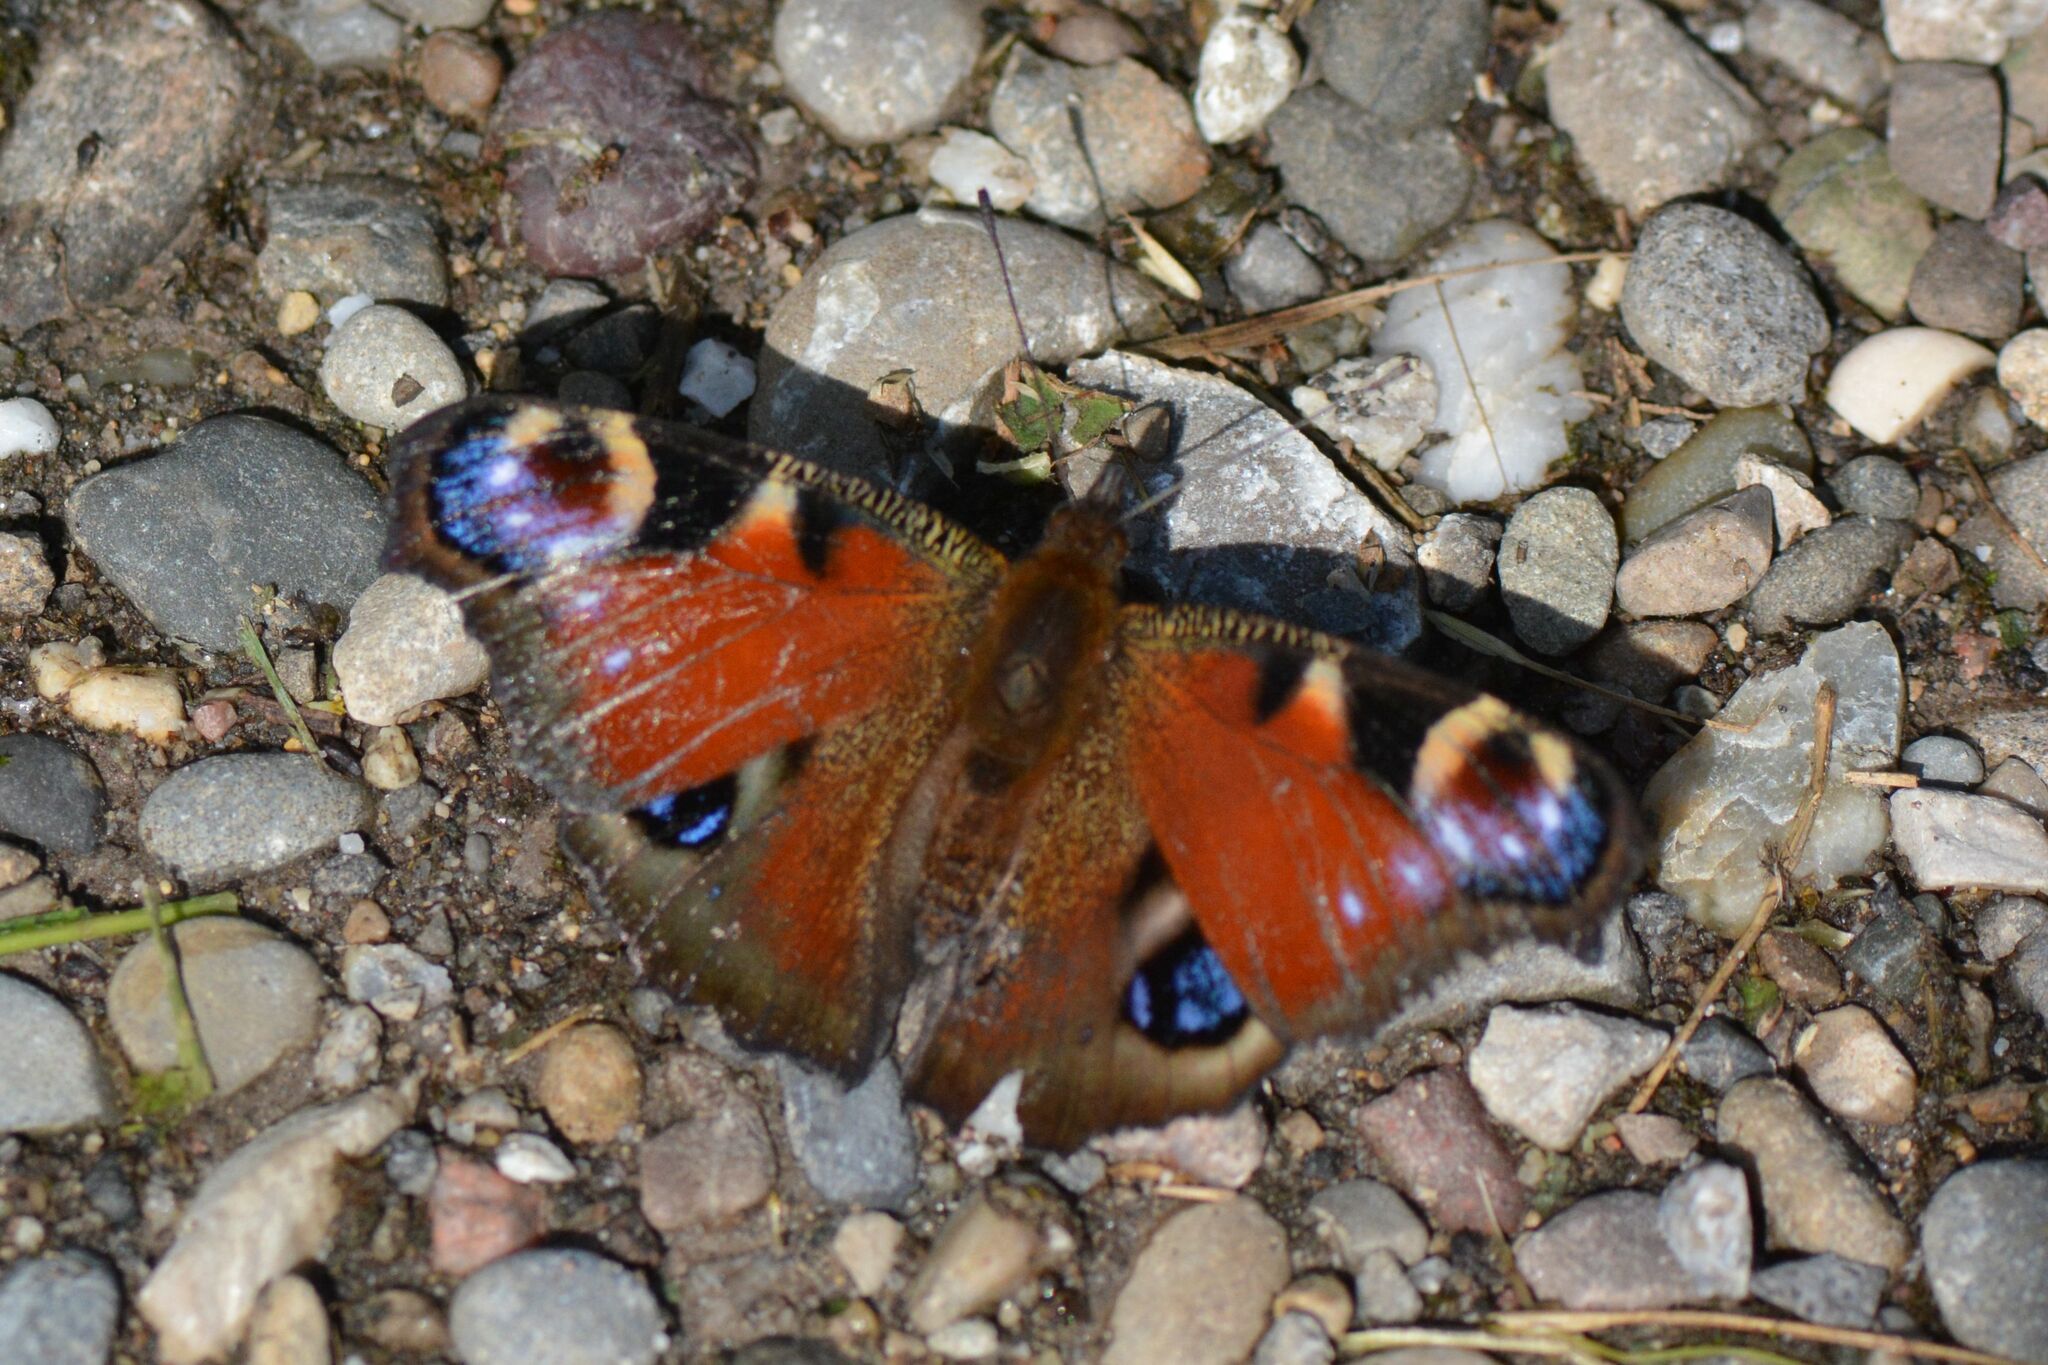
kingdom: Animalia
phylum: Arthropoda
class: Insecta
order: Lepidoptera
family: Nymphalidae
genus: Aglais
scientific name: Aglais io
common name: Peacock
